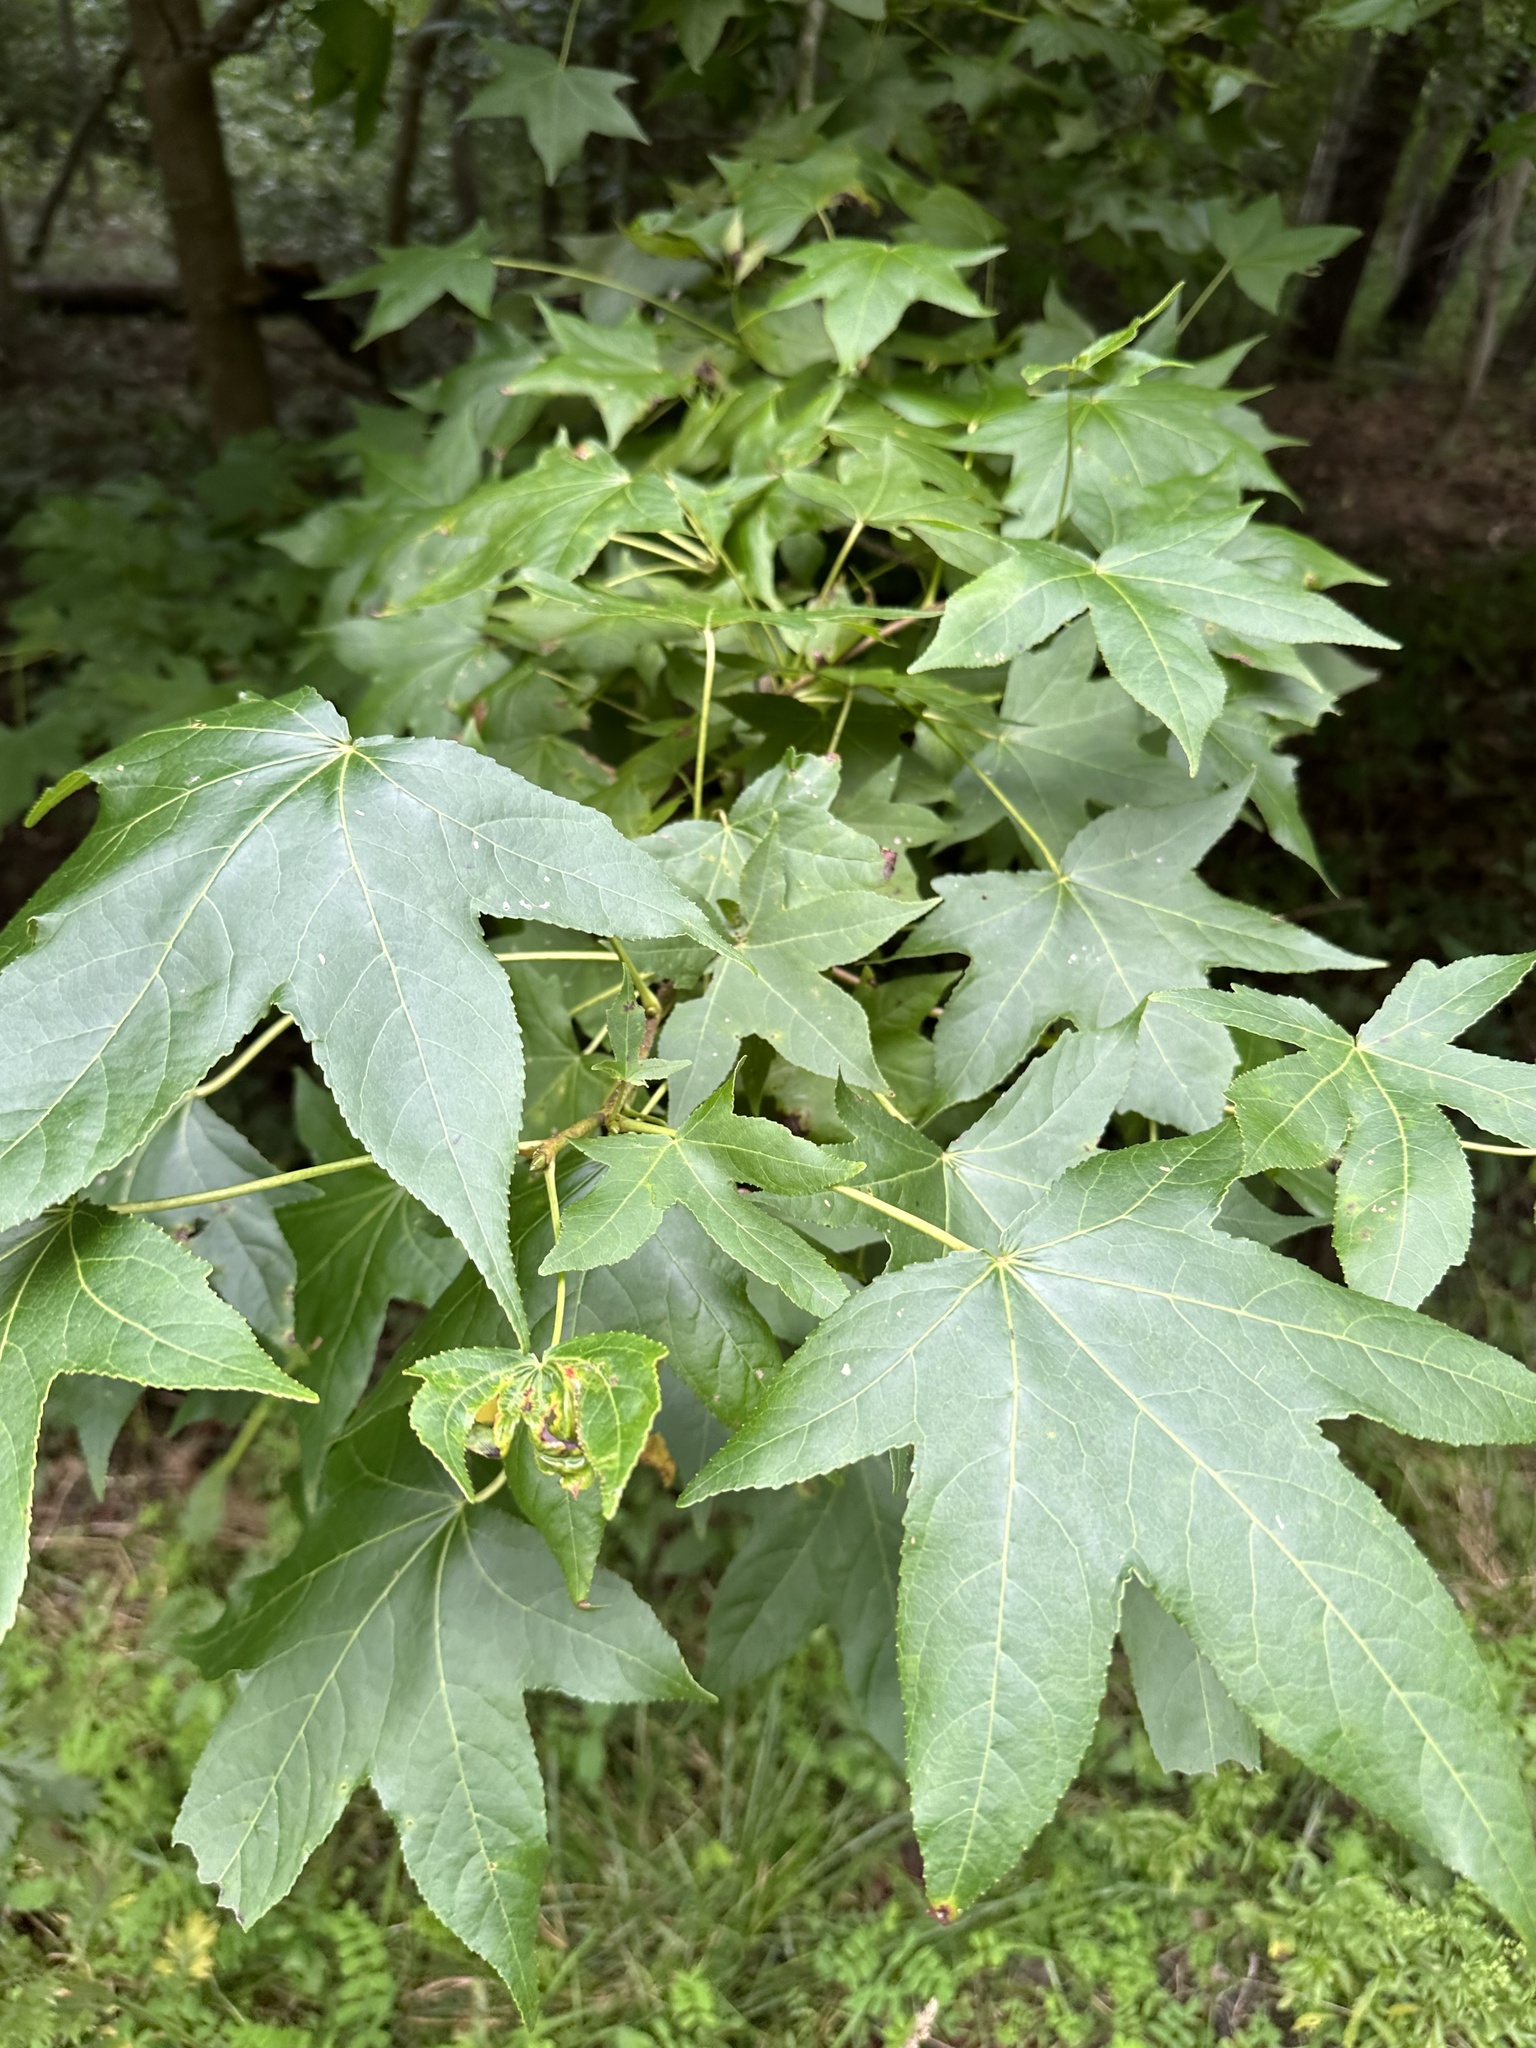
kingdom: Plantae
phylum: Tracheophyta
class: Magnoliopsida
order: Saxifragales
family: Altingiaceae
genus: Liquidambar
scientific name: Liquidambar styraciflua
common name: Sweet gum
